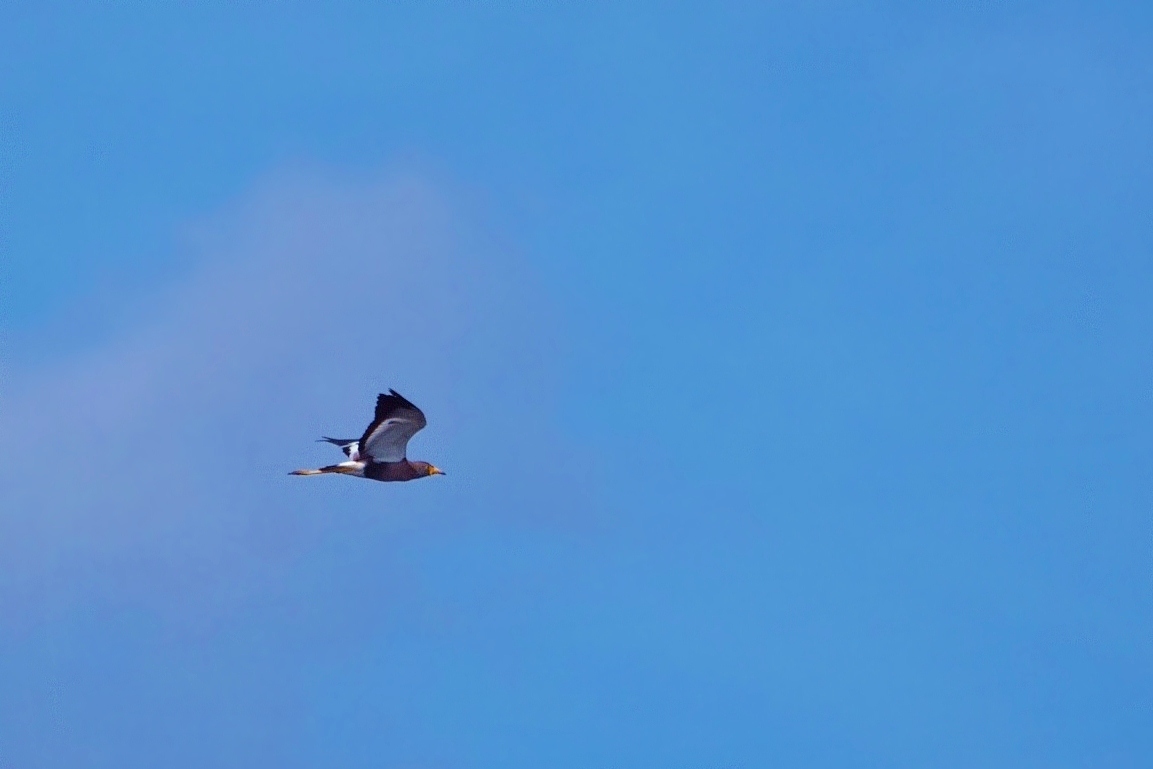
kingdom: Animalia
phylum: Chordata
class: Aves
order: Charadriiformes
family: Charadriidae
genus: Vanellus
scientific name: Vanellus senegallus
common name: African wattled lapwing
